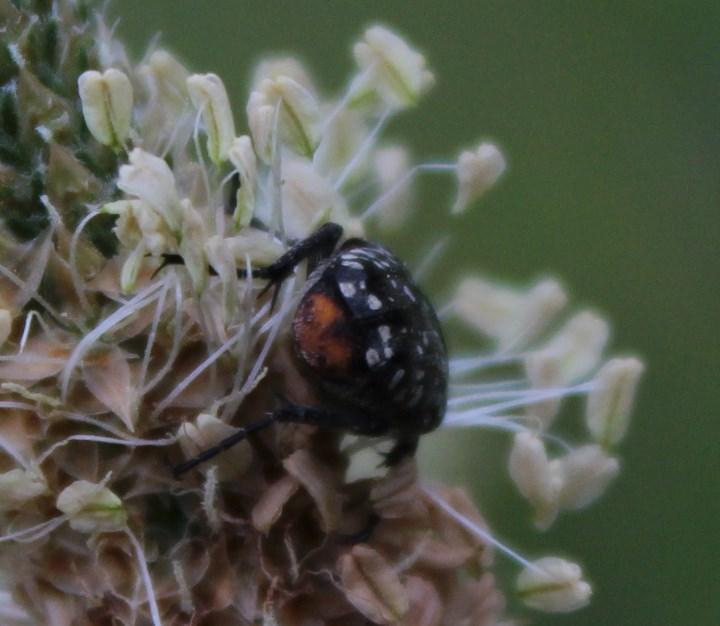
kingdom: Animalia
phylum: Arthropoda
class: Insecta
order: Coleoptera
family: Scarabaeidae
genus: Oxythyrea
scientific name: Oxythyrea
